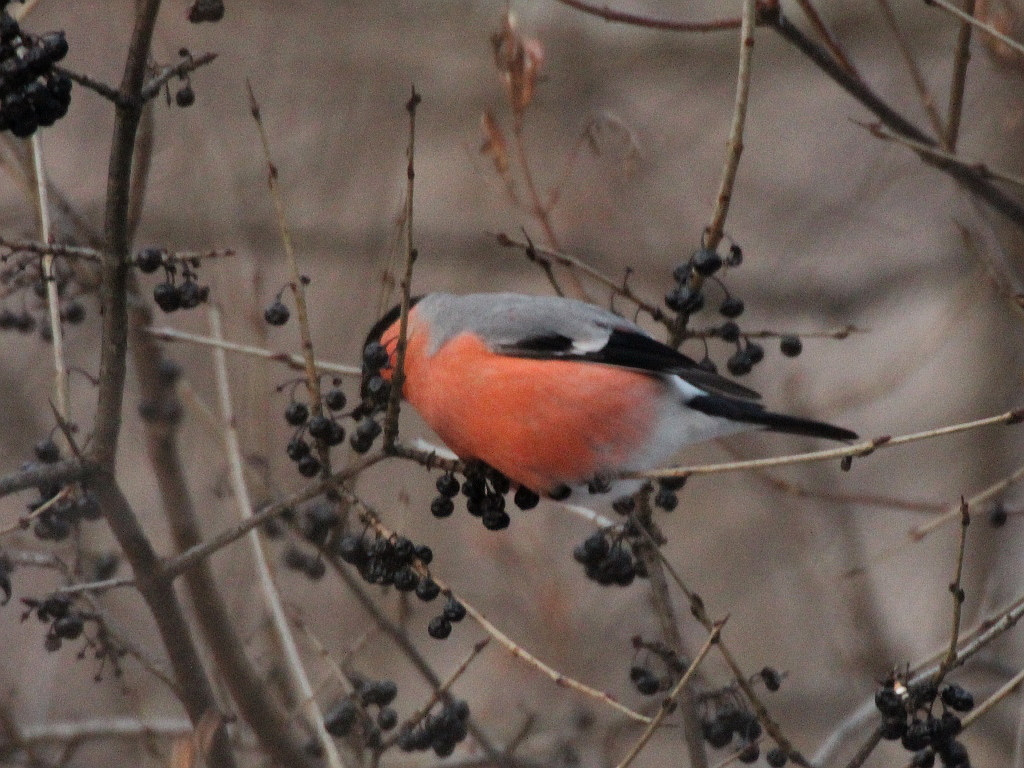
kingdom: Animalia
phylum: Chordata
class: Aves
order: Passeriformes
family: Fringillidae
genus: Pyrrhula
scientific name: Pyrrhula pyrrhula
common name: Eurasian bullfinch
